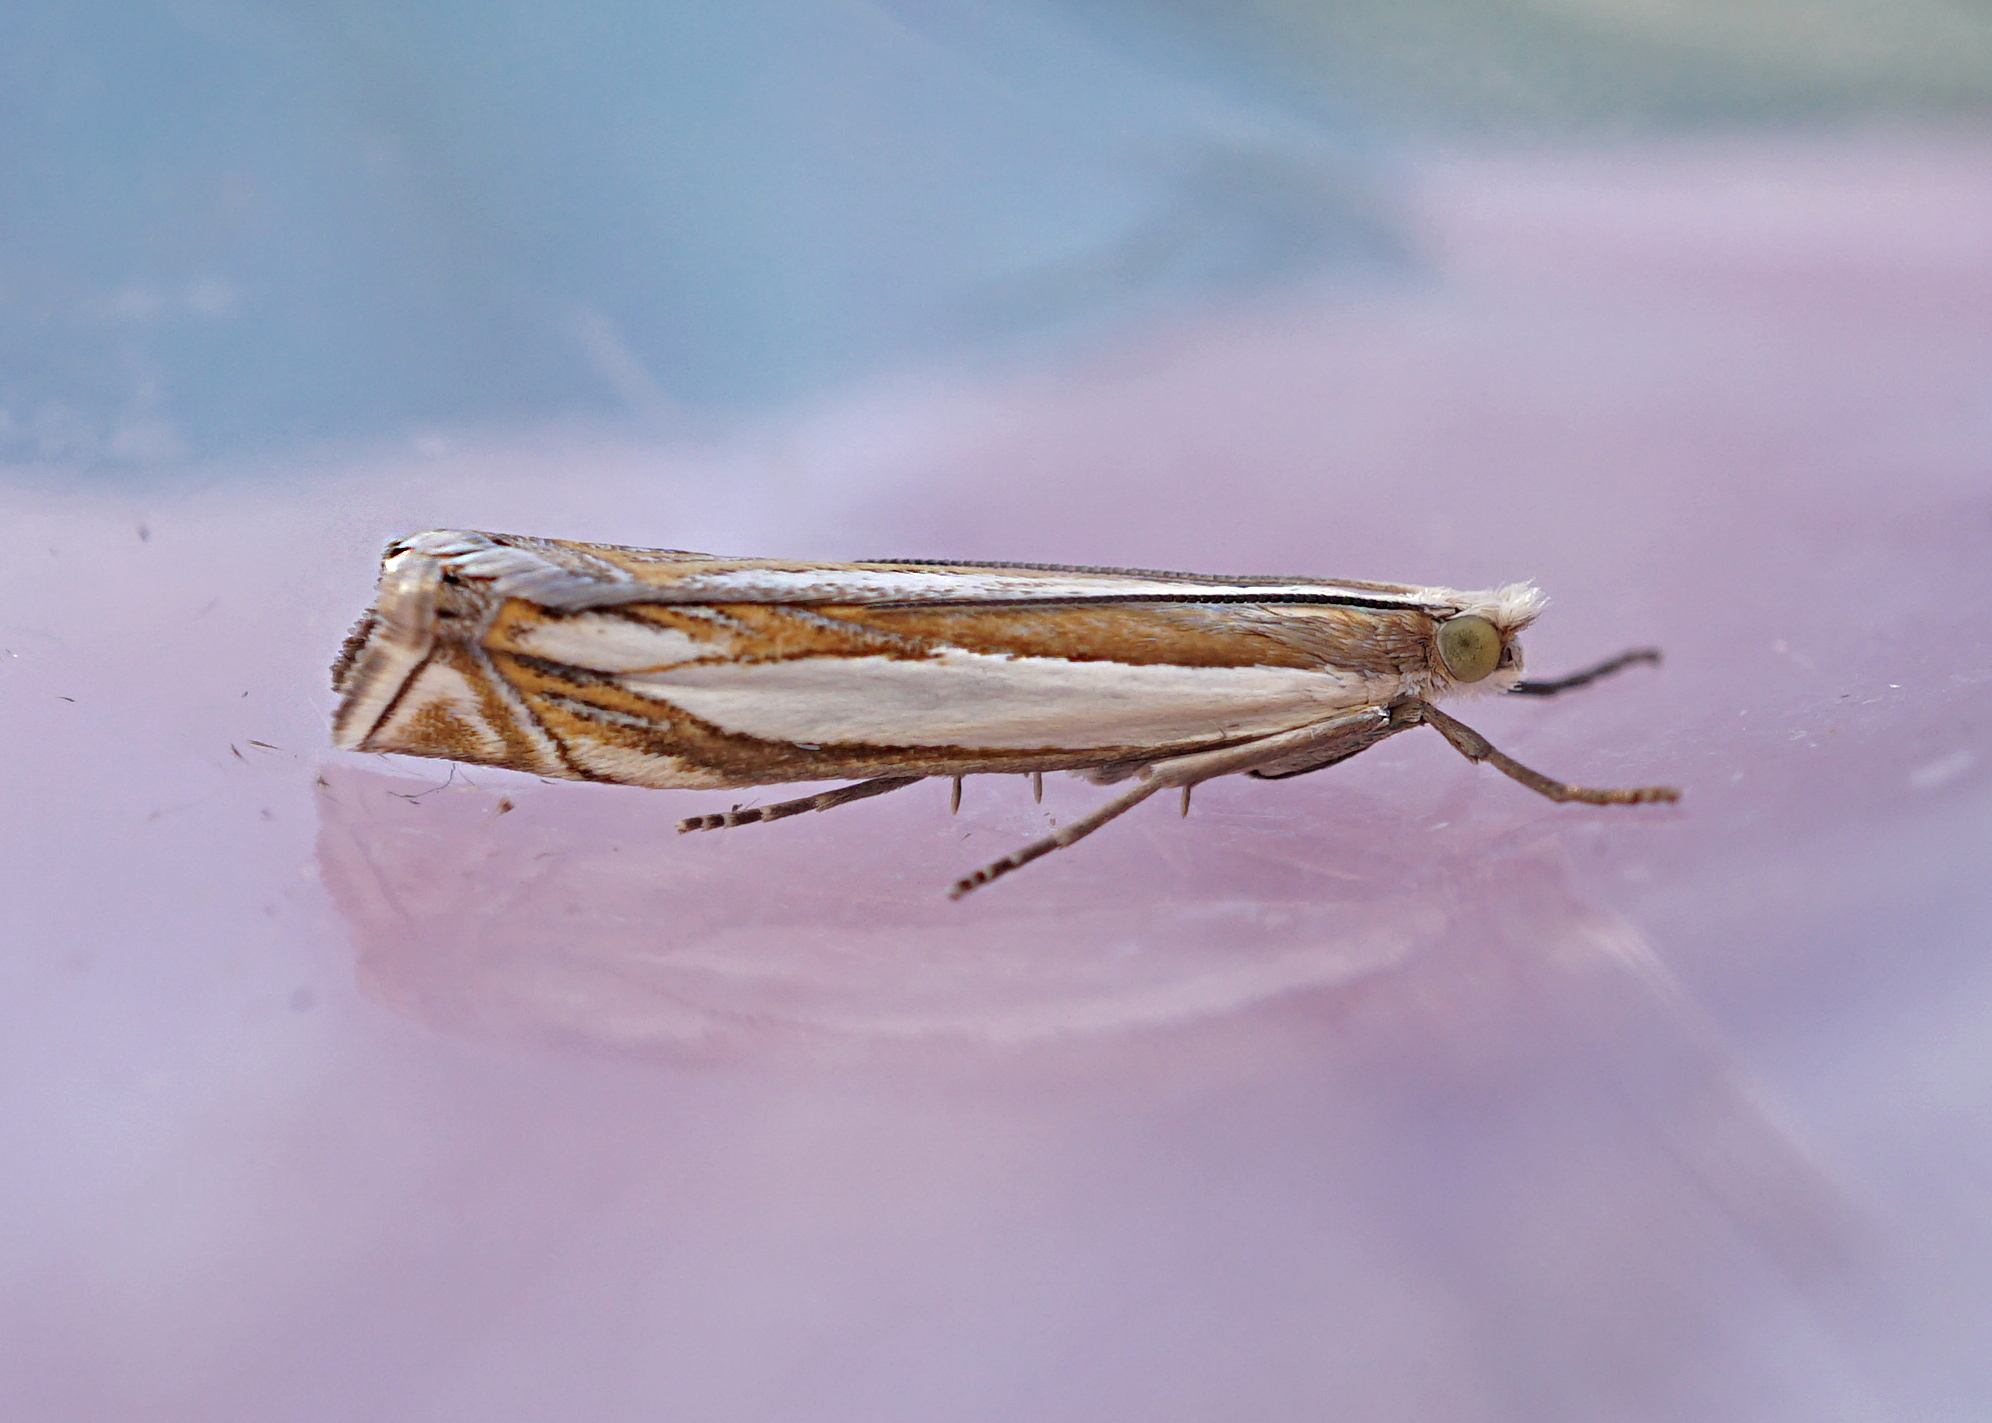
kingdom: Animalia
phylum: Arthropoda
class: Insecta
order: Lepidoptera
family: Crambidae
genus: Crambus
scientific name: Crambus pascuella
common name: Inlaid grass-veneer
